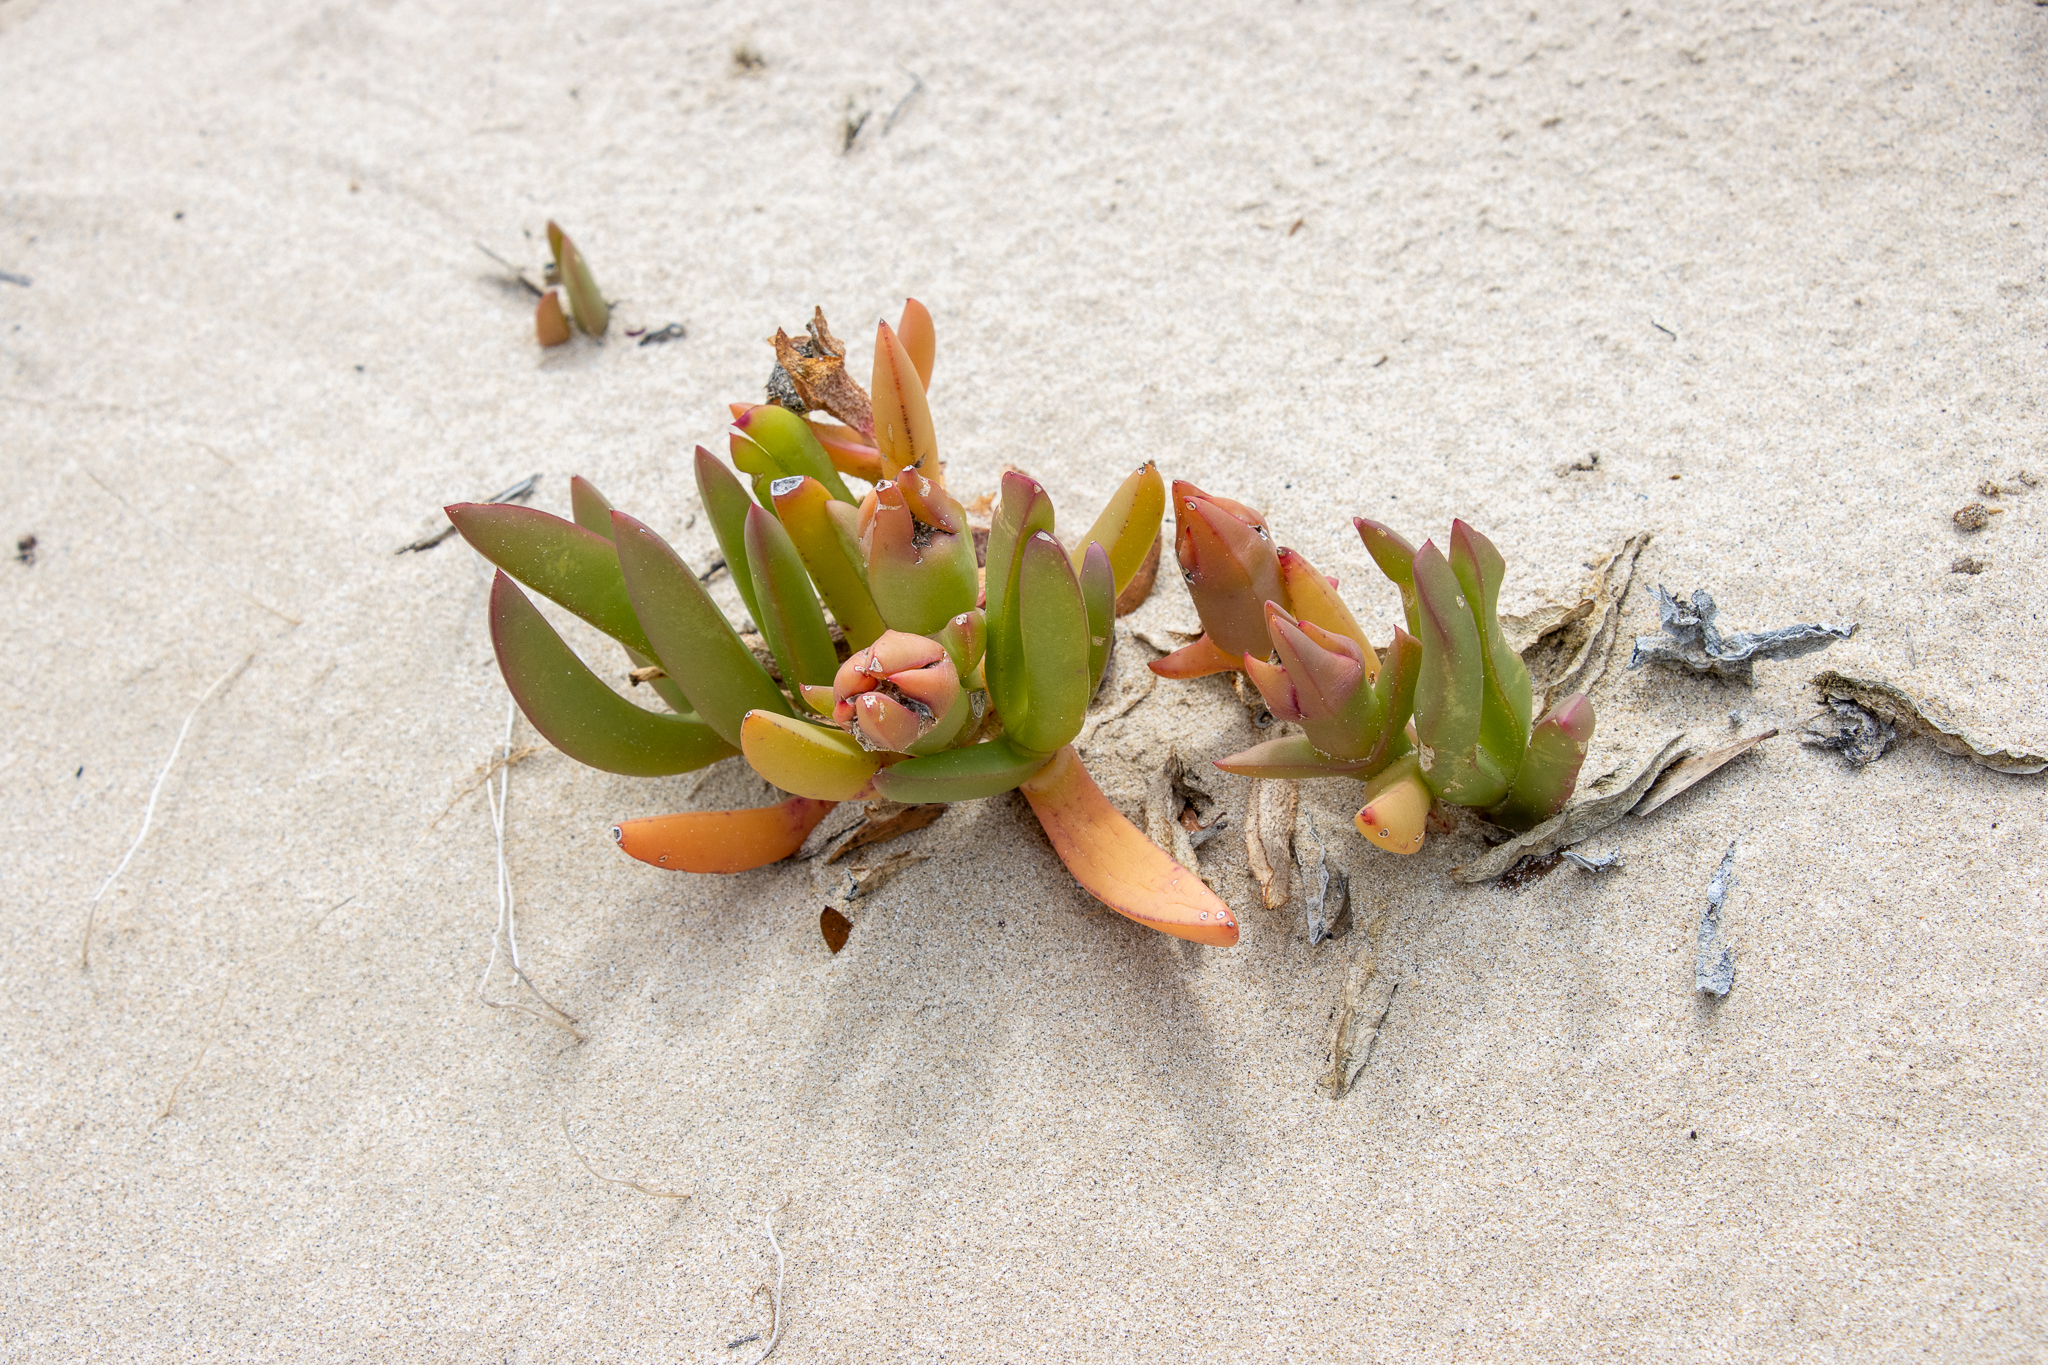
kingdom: Plantae
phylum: Tracheophyta
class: Magnoliopsida
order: Caryophyllales
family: Aizoaceae
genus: Carpobrotus
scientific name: Carpobrotus rossii
